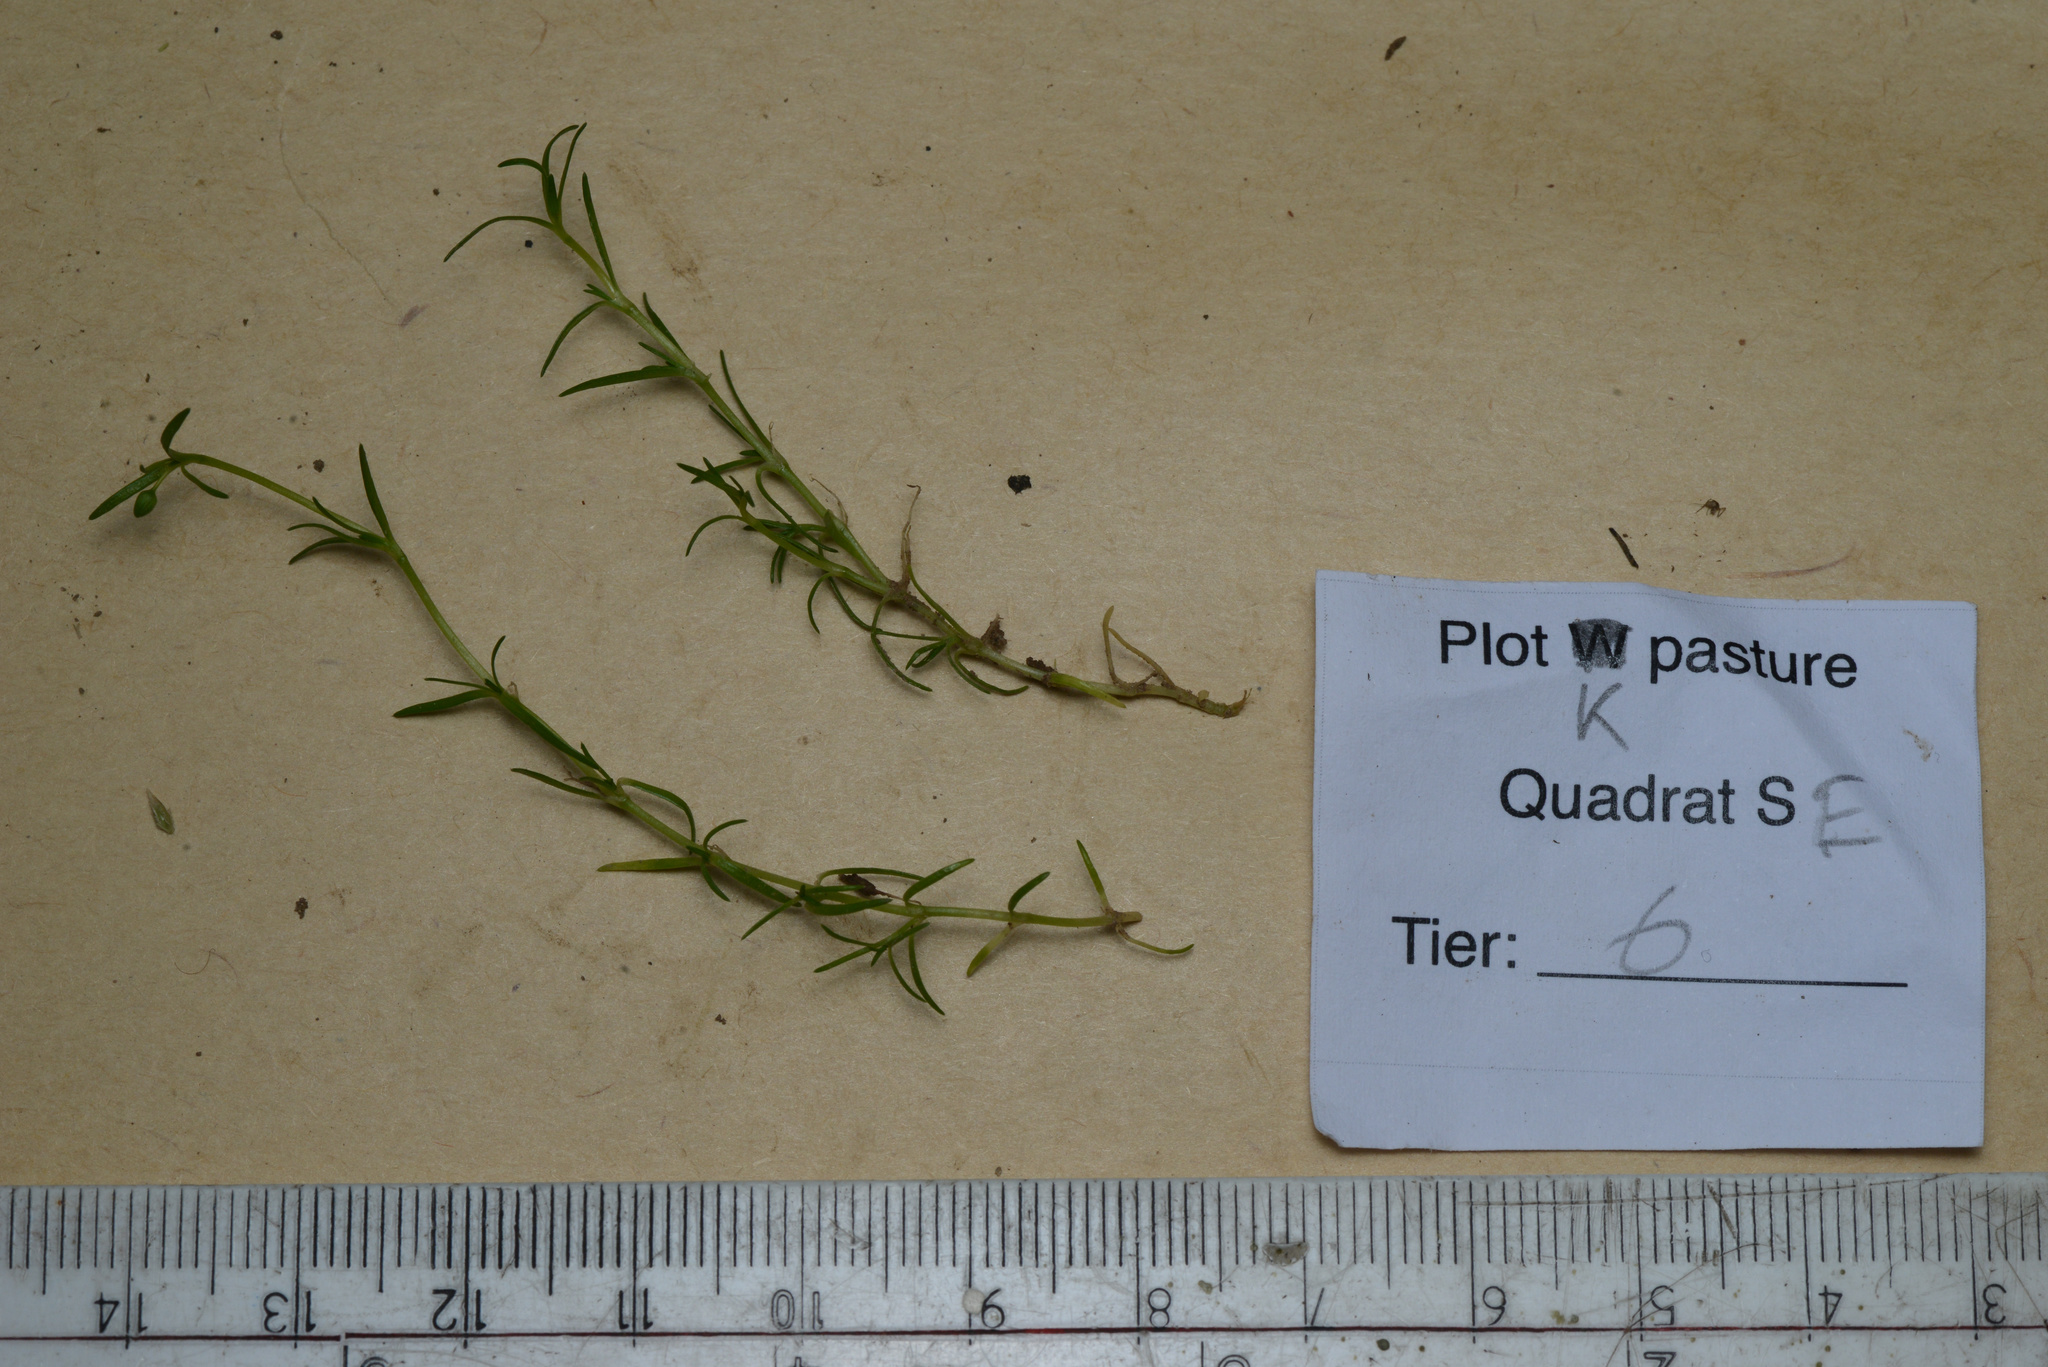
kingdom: Plantae
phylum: Tracheophyta
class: Magnoliopsida
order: Caryophyllales
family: Caryophyllaceae
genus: Sagina
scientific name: Sagina procumbens
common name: Procumbent pearlwort
